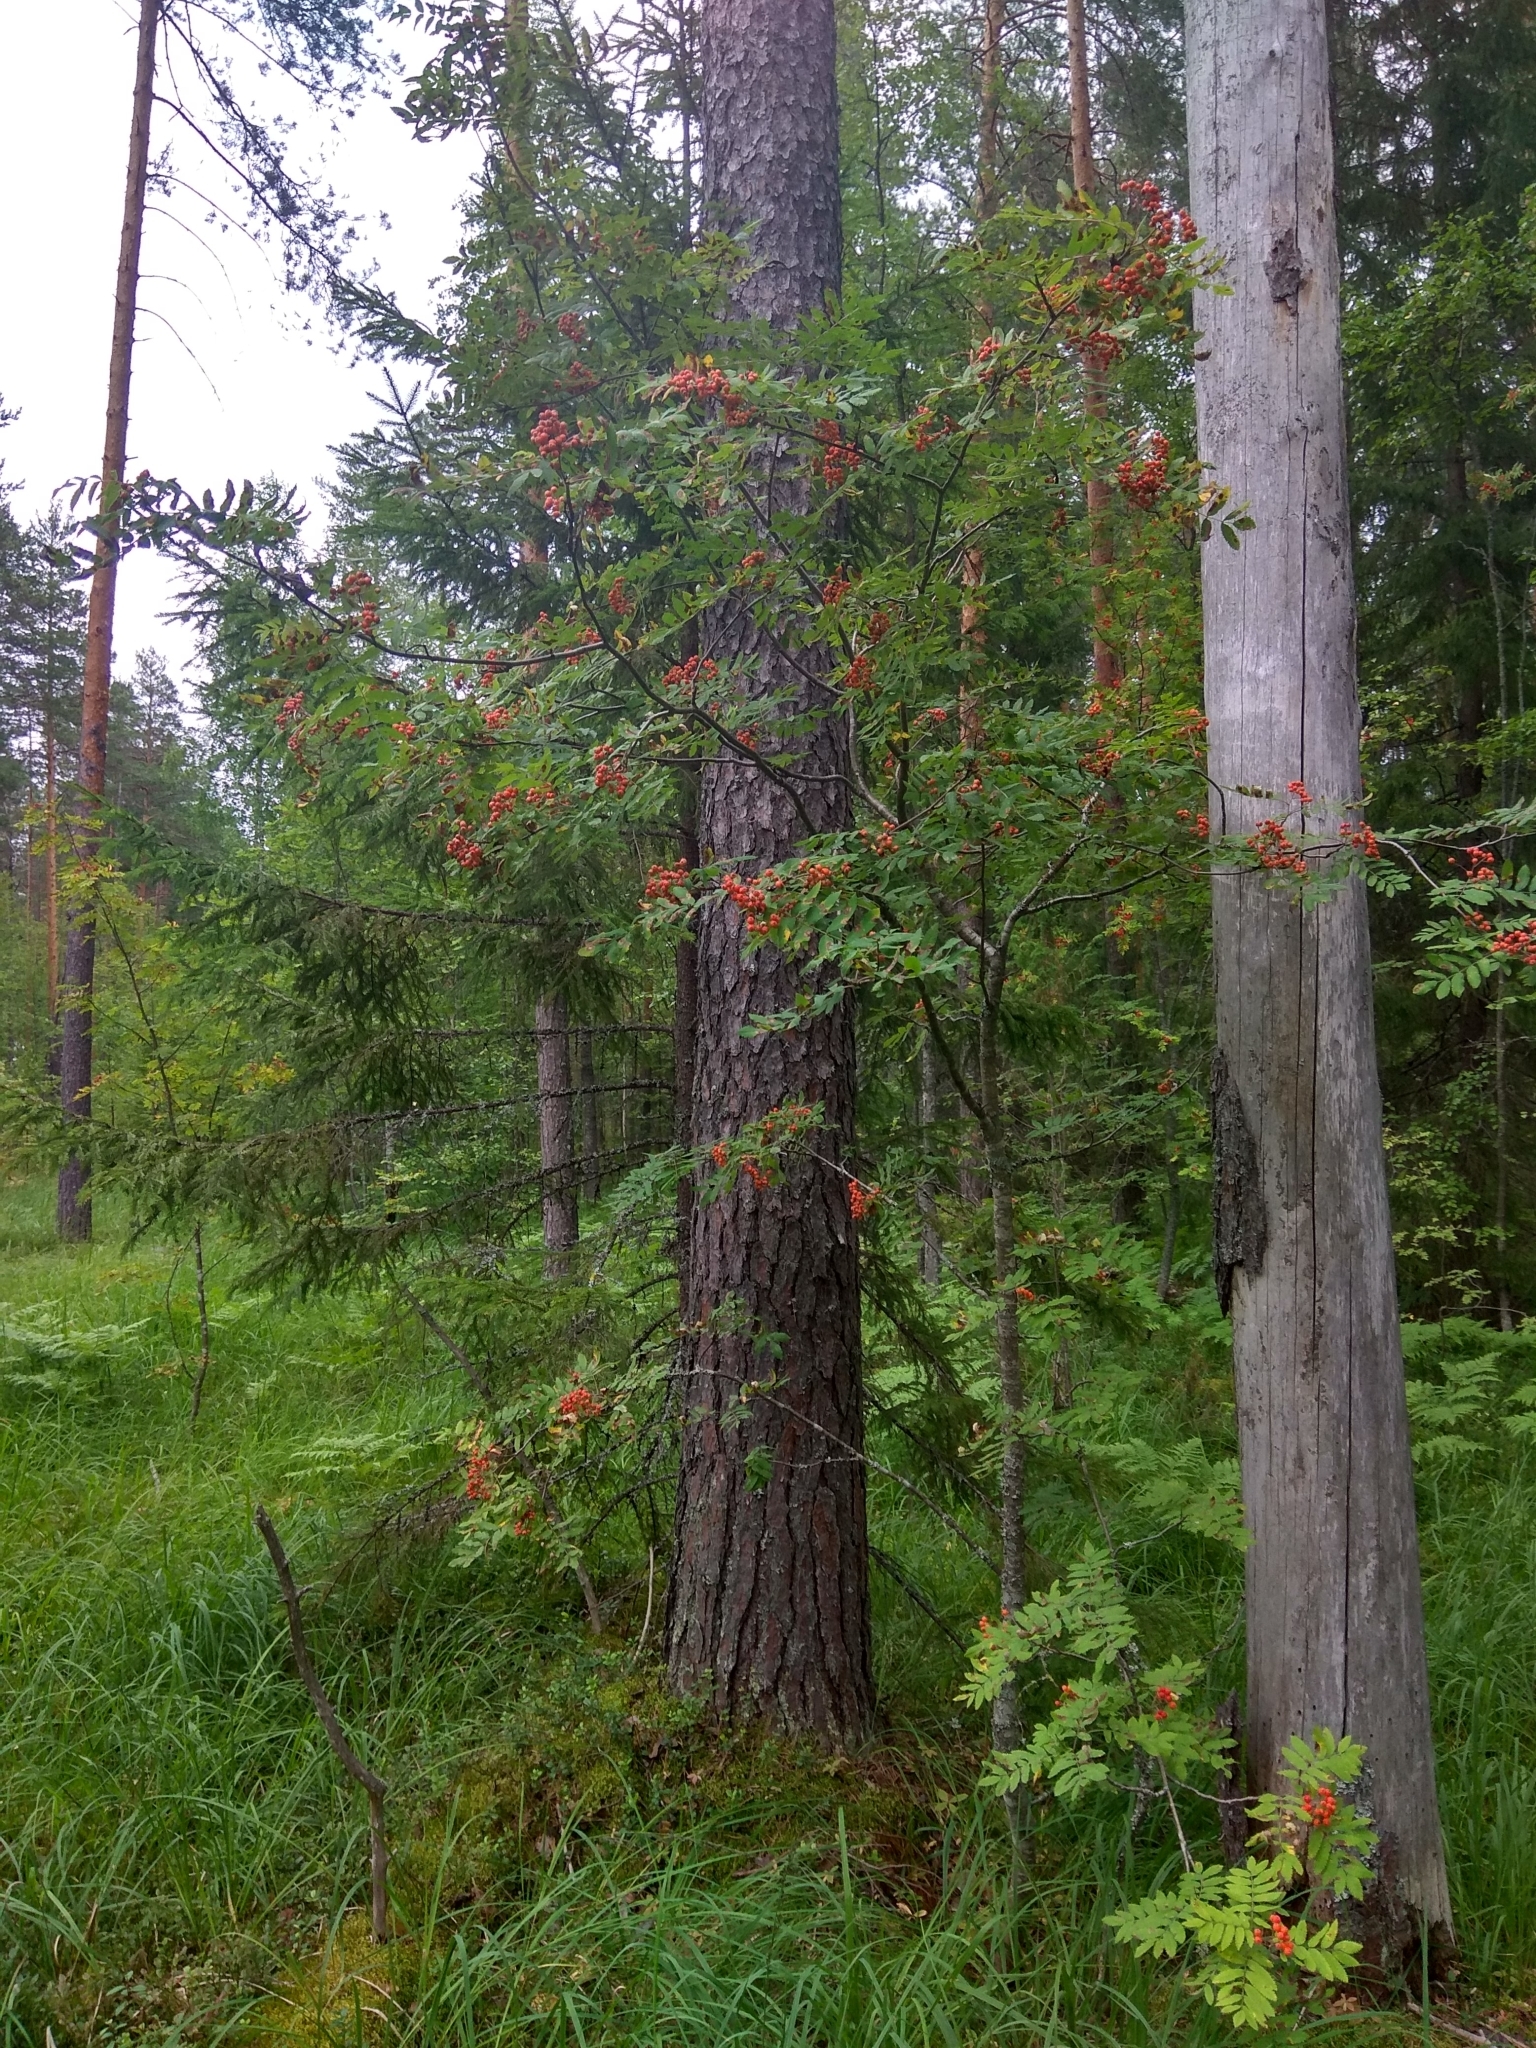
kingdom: Plantae
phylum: Tracheophyta
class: Magnoliopsida
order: Rosales
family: Rosaceae
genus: Sorbus
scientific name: Sorbus aucuparia
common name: Rowan
